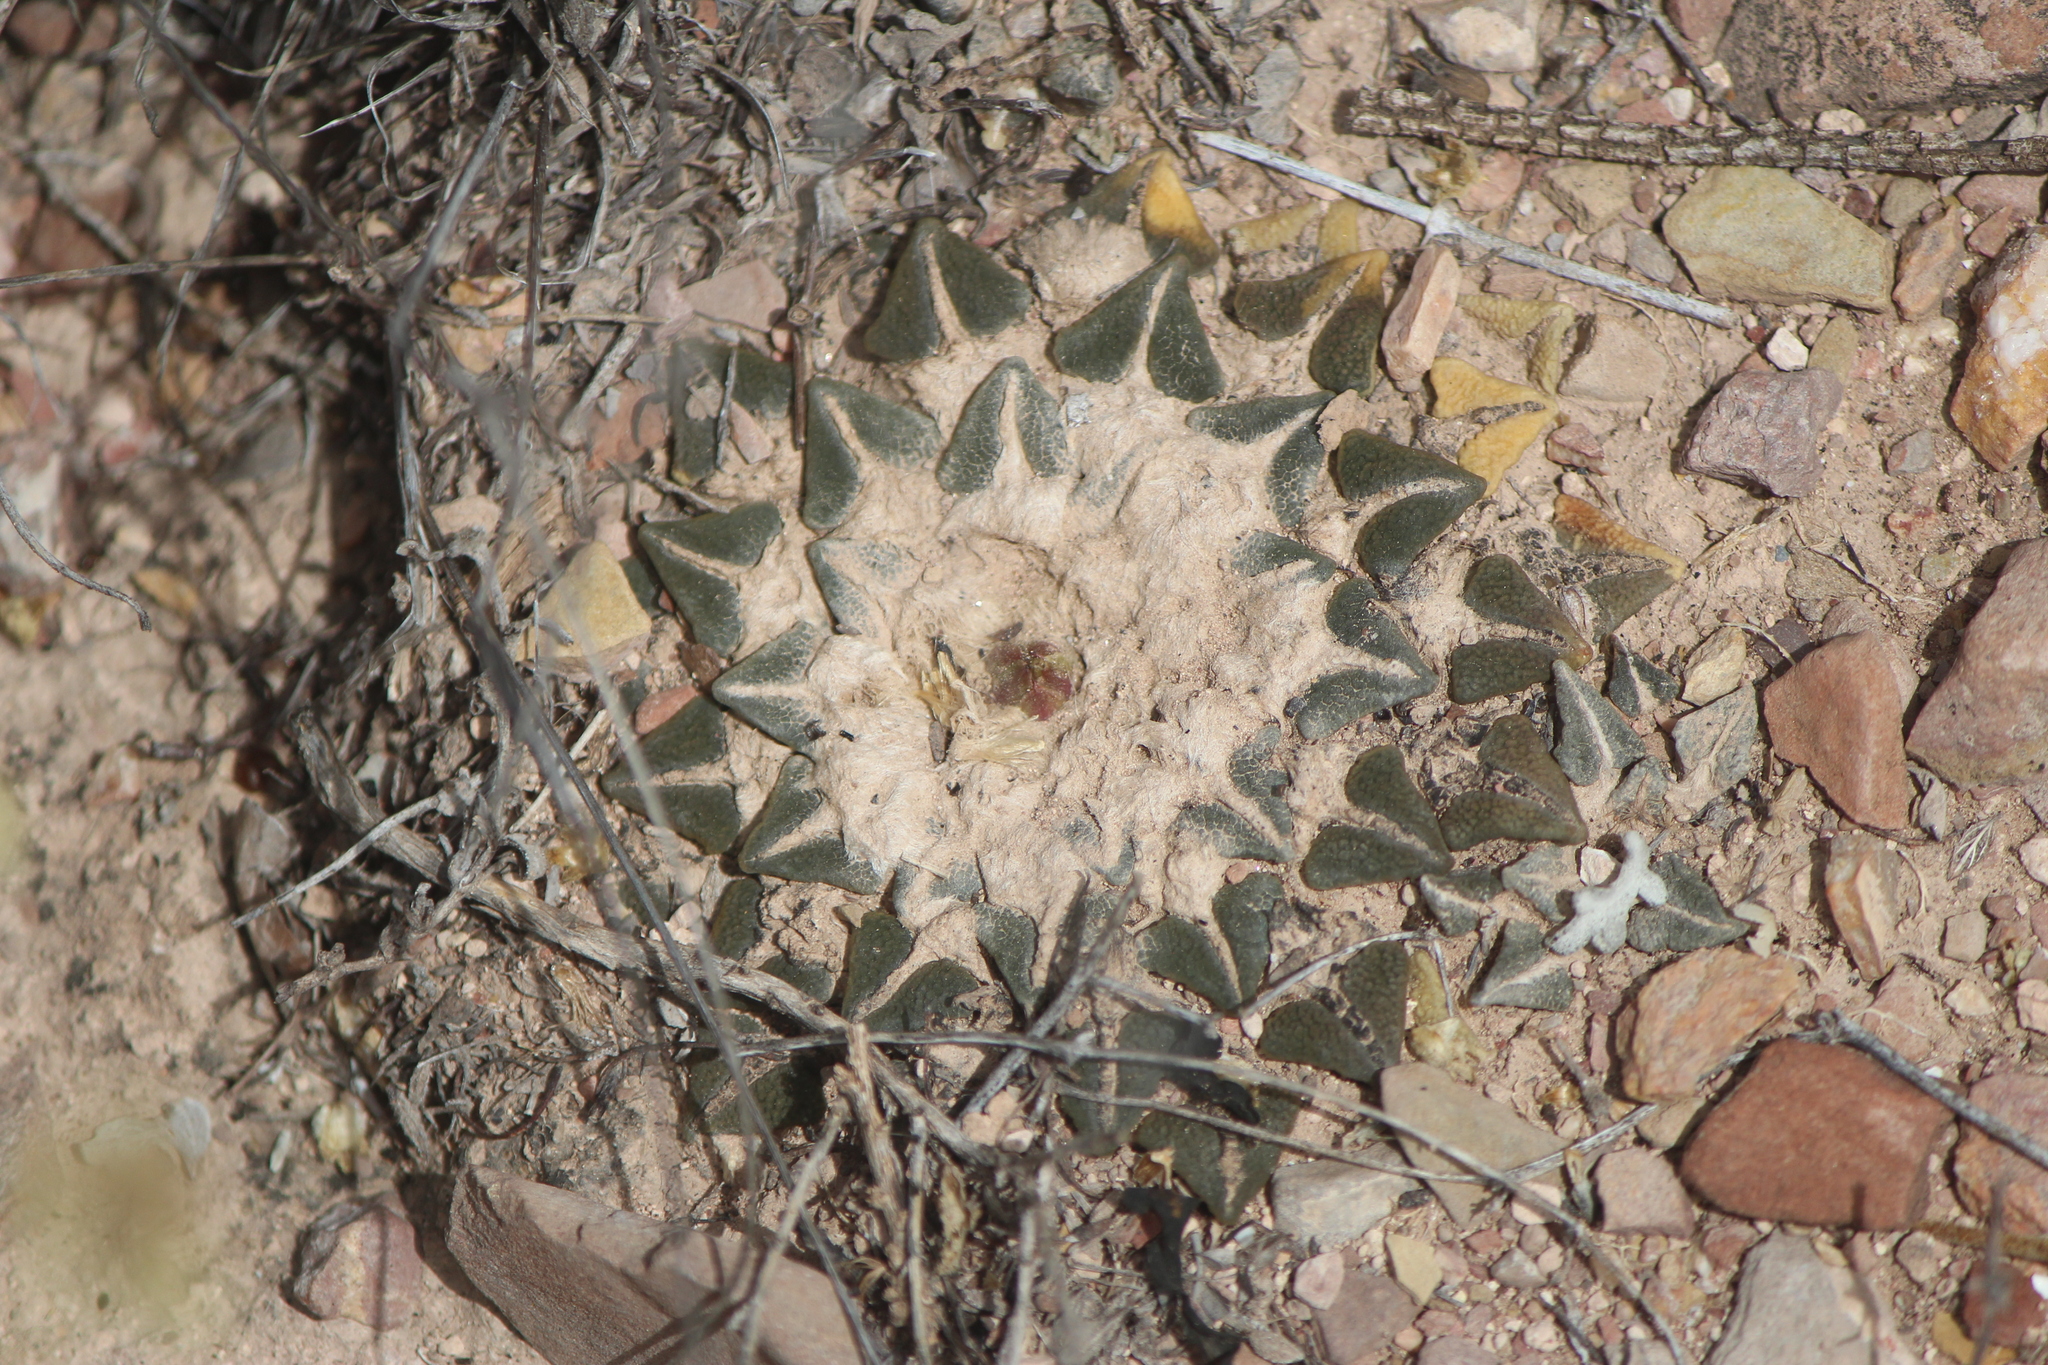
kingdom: Plantae
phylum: Tracheophyta
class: Magnoliopsida
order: Caryophyllales
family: Cactaceae
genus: Ariocarpus
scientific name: Ariocarpus kotschoubeyanus
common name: Living-rock
